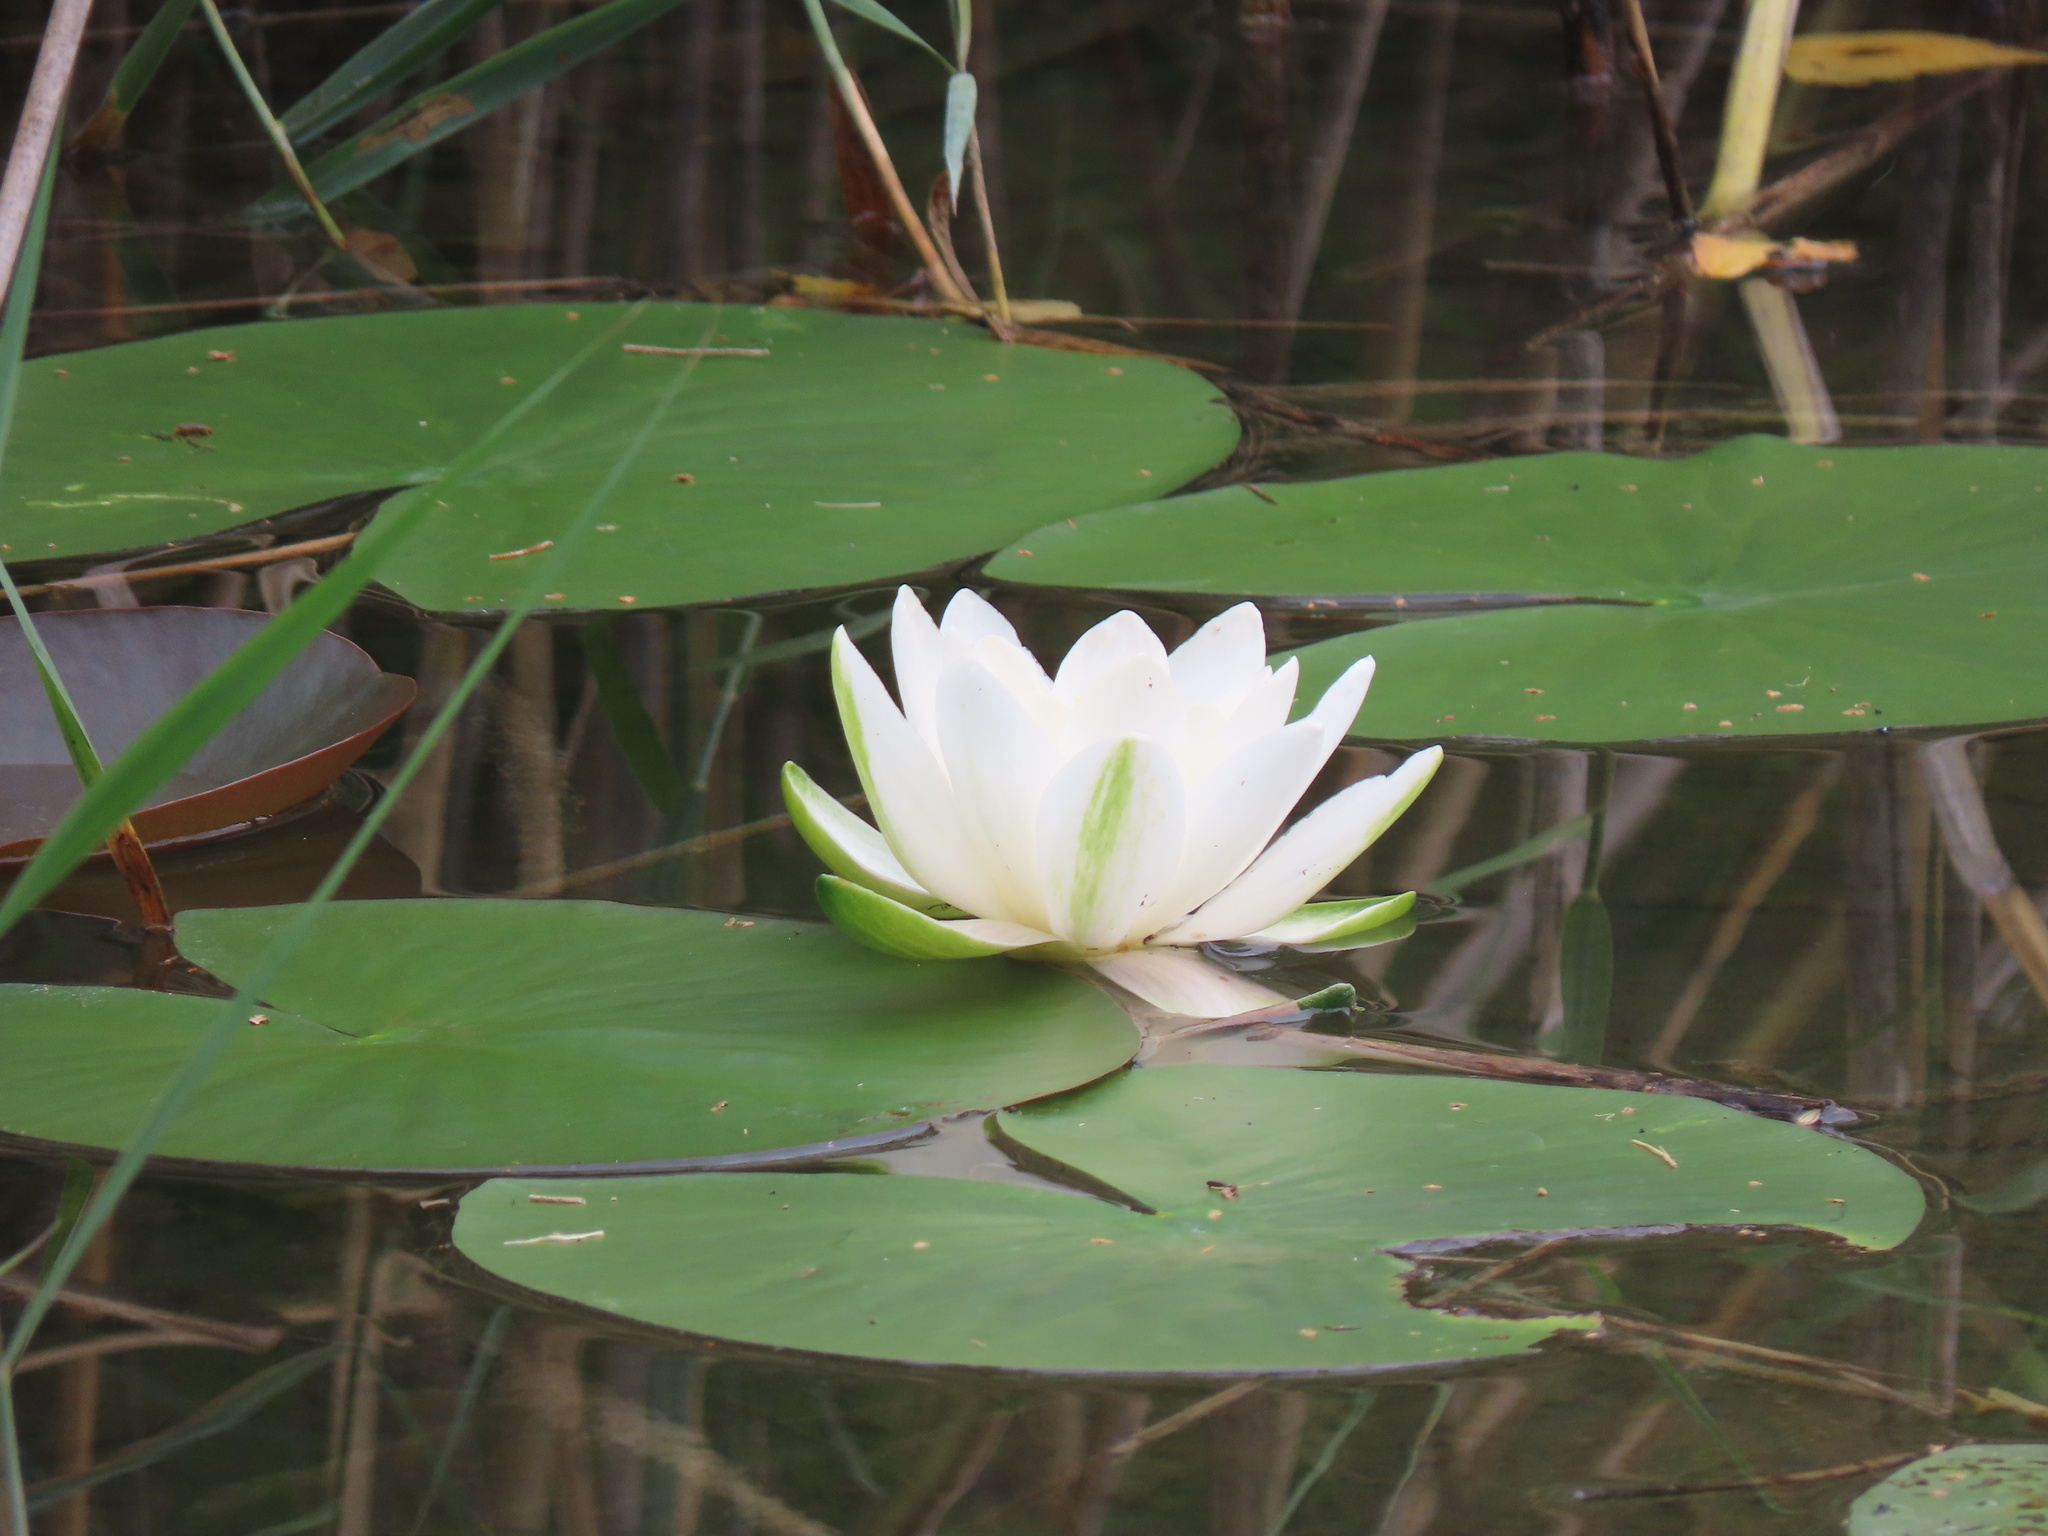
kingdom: Plantae
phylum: Tracheophyta
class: Magnoliopsida
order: Nymphaeales
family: Nymphaeaceae
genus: Nymphaea
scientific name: Nymphaea alba
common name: White water-lily
